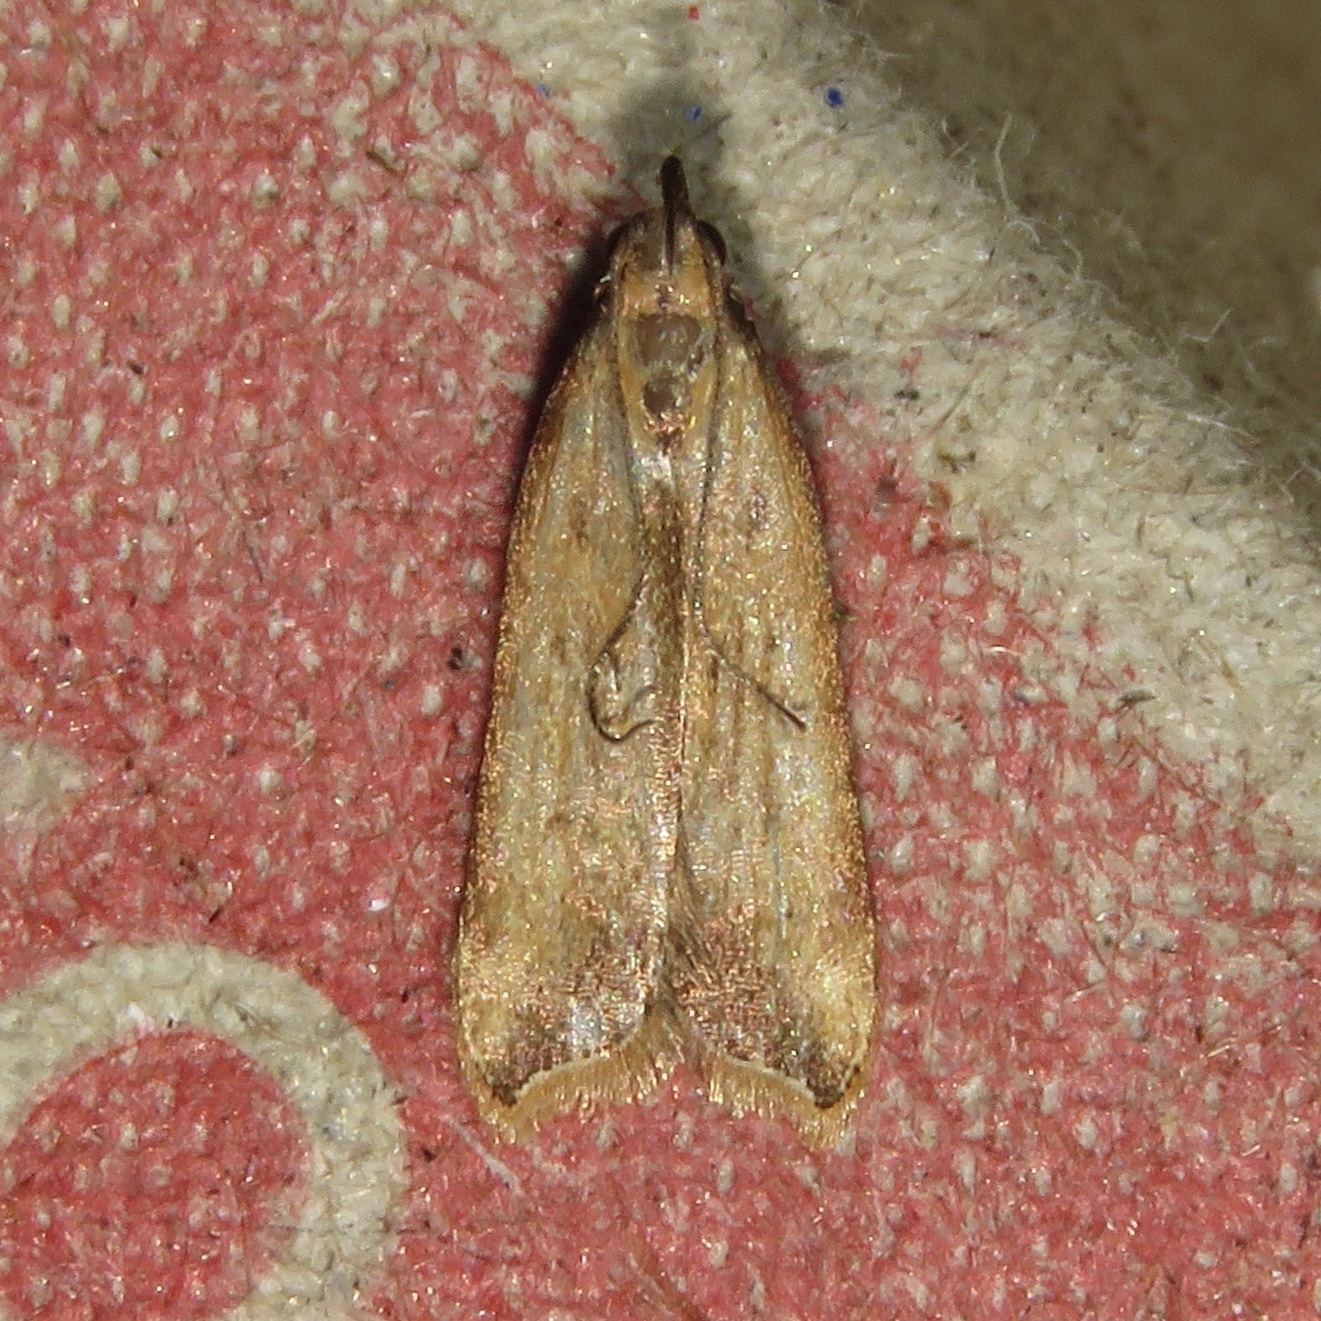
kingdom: Animalia
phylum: Arthropoda
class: Insecta
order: Lepidoptera
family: Gelechiidae
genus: Dichomeris
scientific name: Dichomeris heriguronis
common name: Black-edged dichomeris moth
